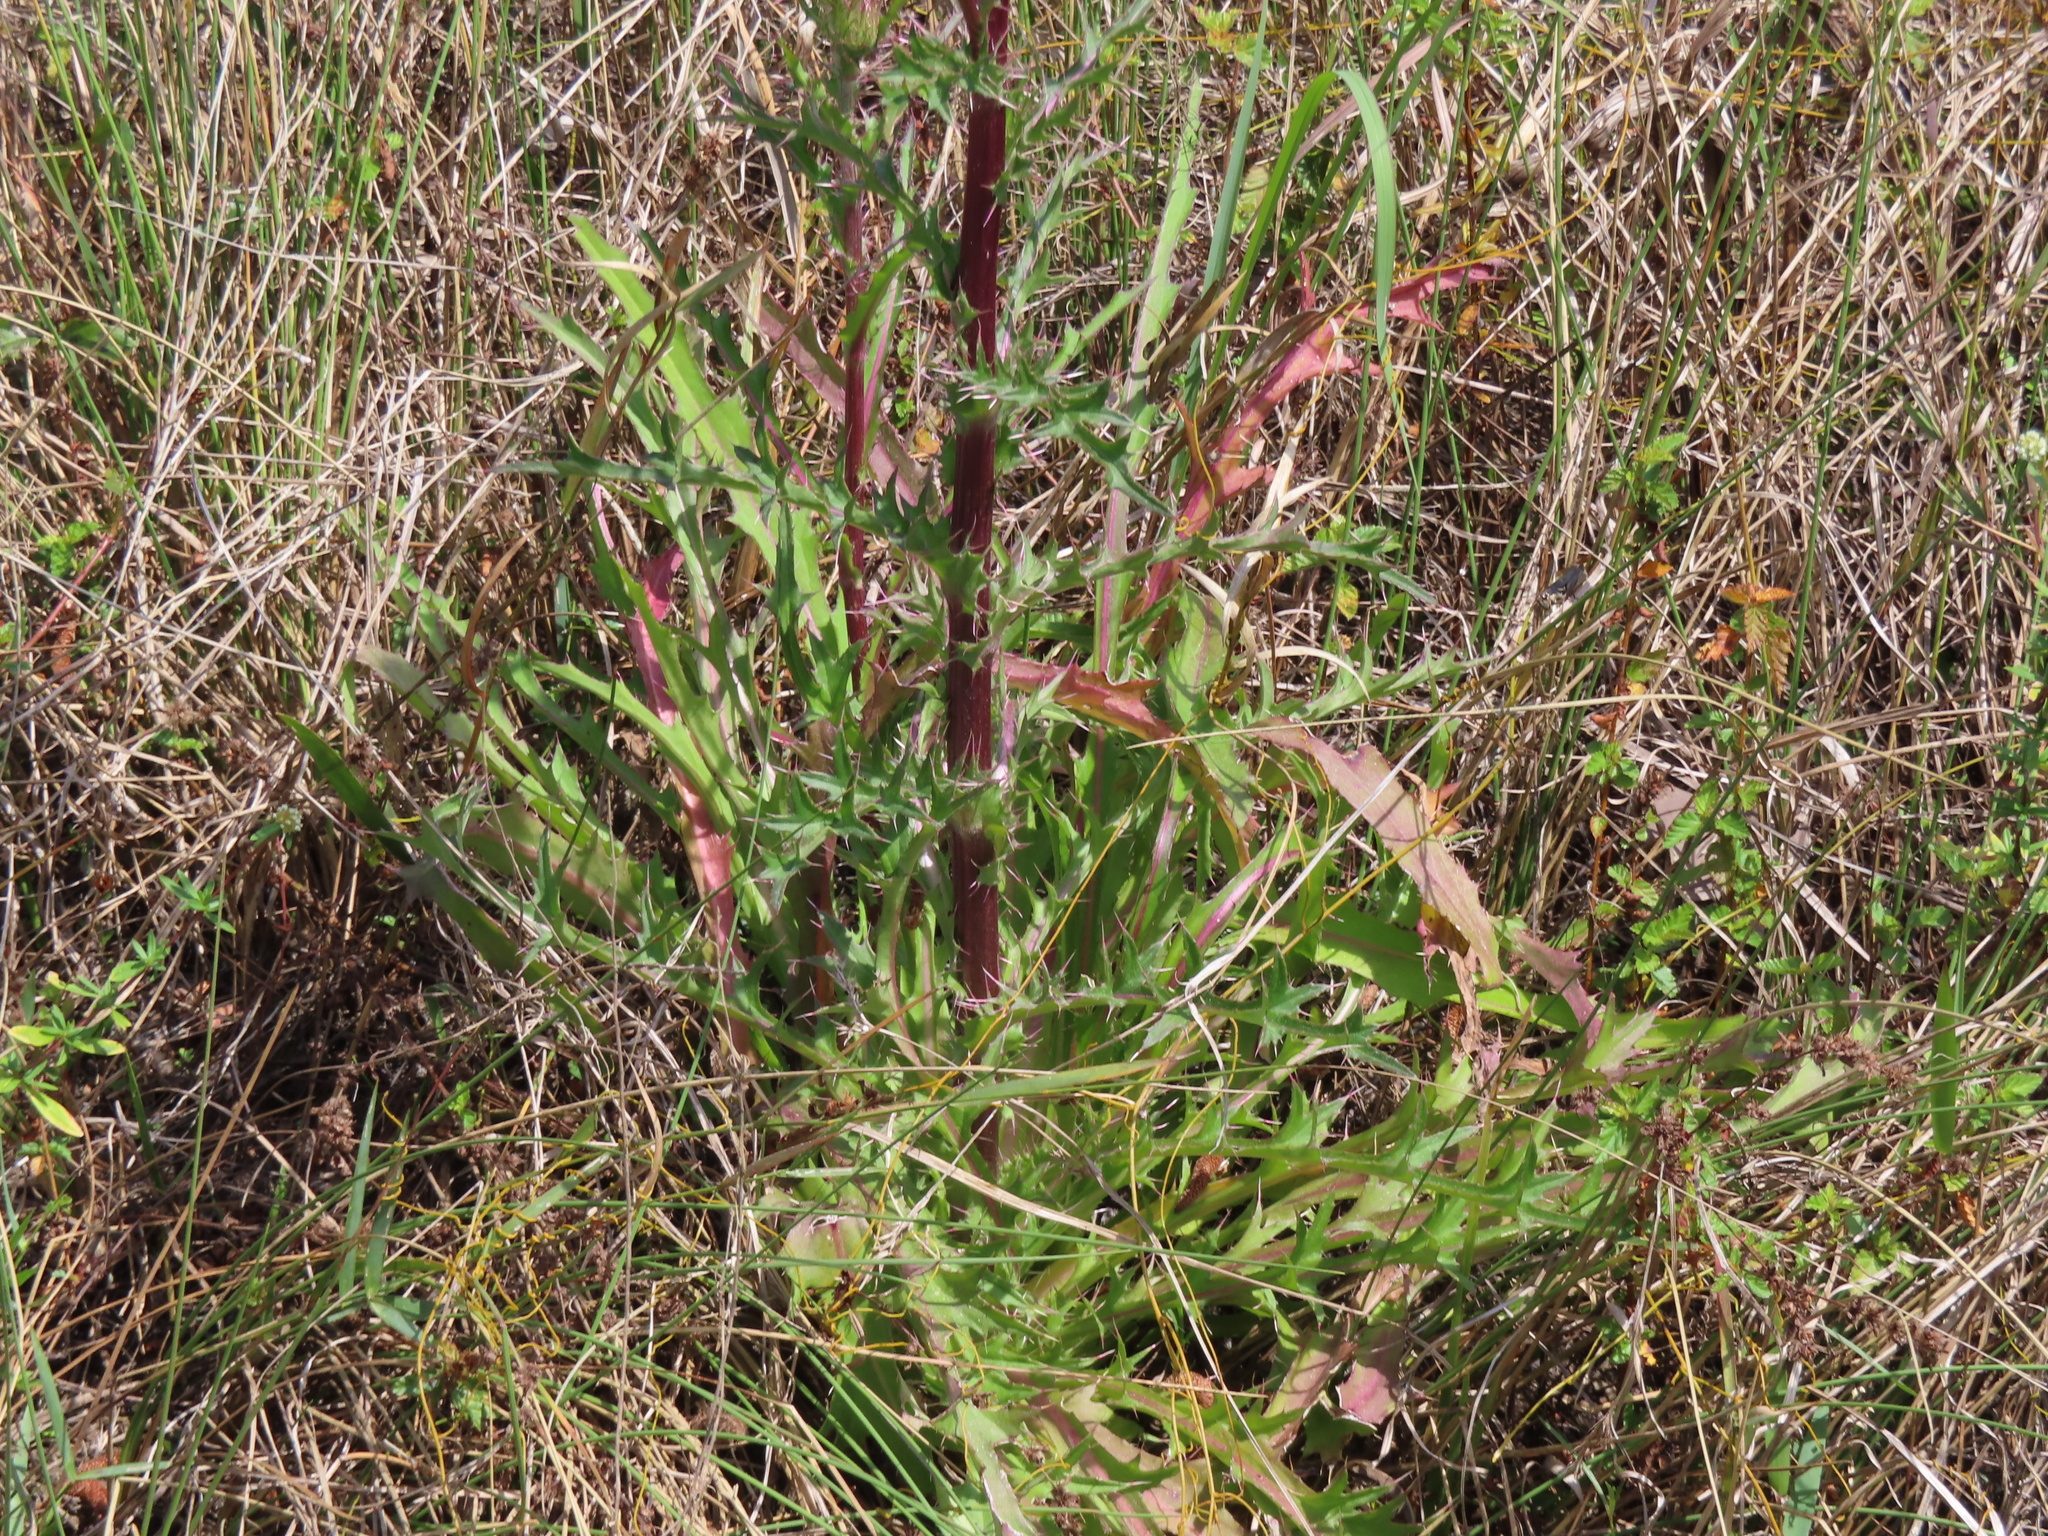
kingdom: Plantae
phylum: Tracheophyta
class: Magnoliopsida
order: Asterales
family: Asteraceae
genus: Cirsium
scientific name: Cirsium horridulum
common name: Bristly thistle
